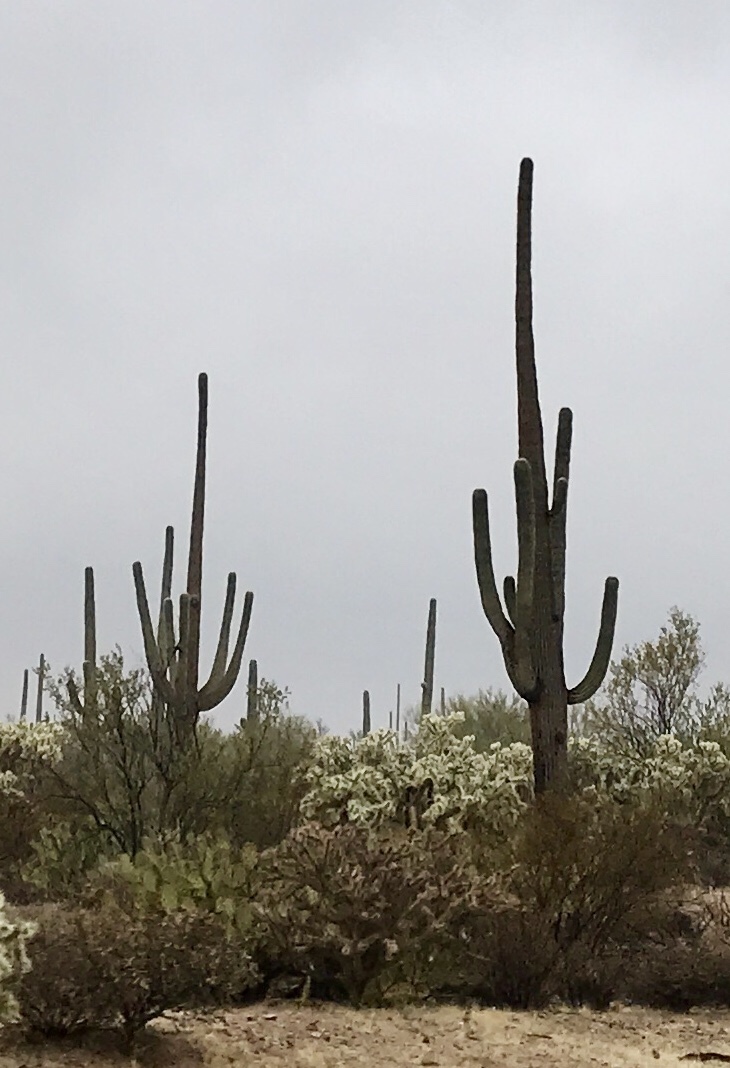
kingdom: Plantae
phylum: Tracheophyta
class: Magnoliopsida
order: Caryophyllales
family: Cactaceae
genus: Carnegiea
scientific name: Carnegiea gigantea
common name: Saguaro
